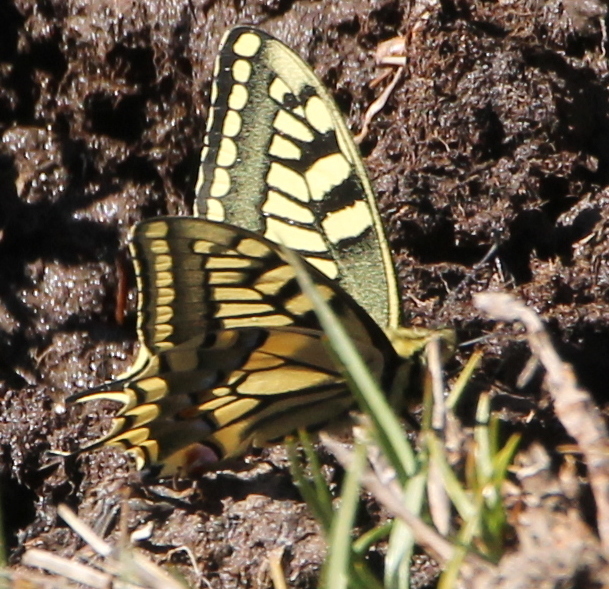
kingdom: Animalia
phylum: Arthropoda
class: Insecta
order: Lepidoptera
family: Papilionidae
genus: Papilio
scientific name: Papilio machaon
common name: Swallowtail
